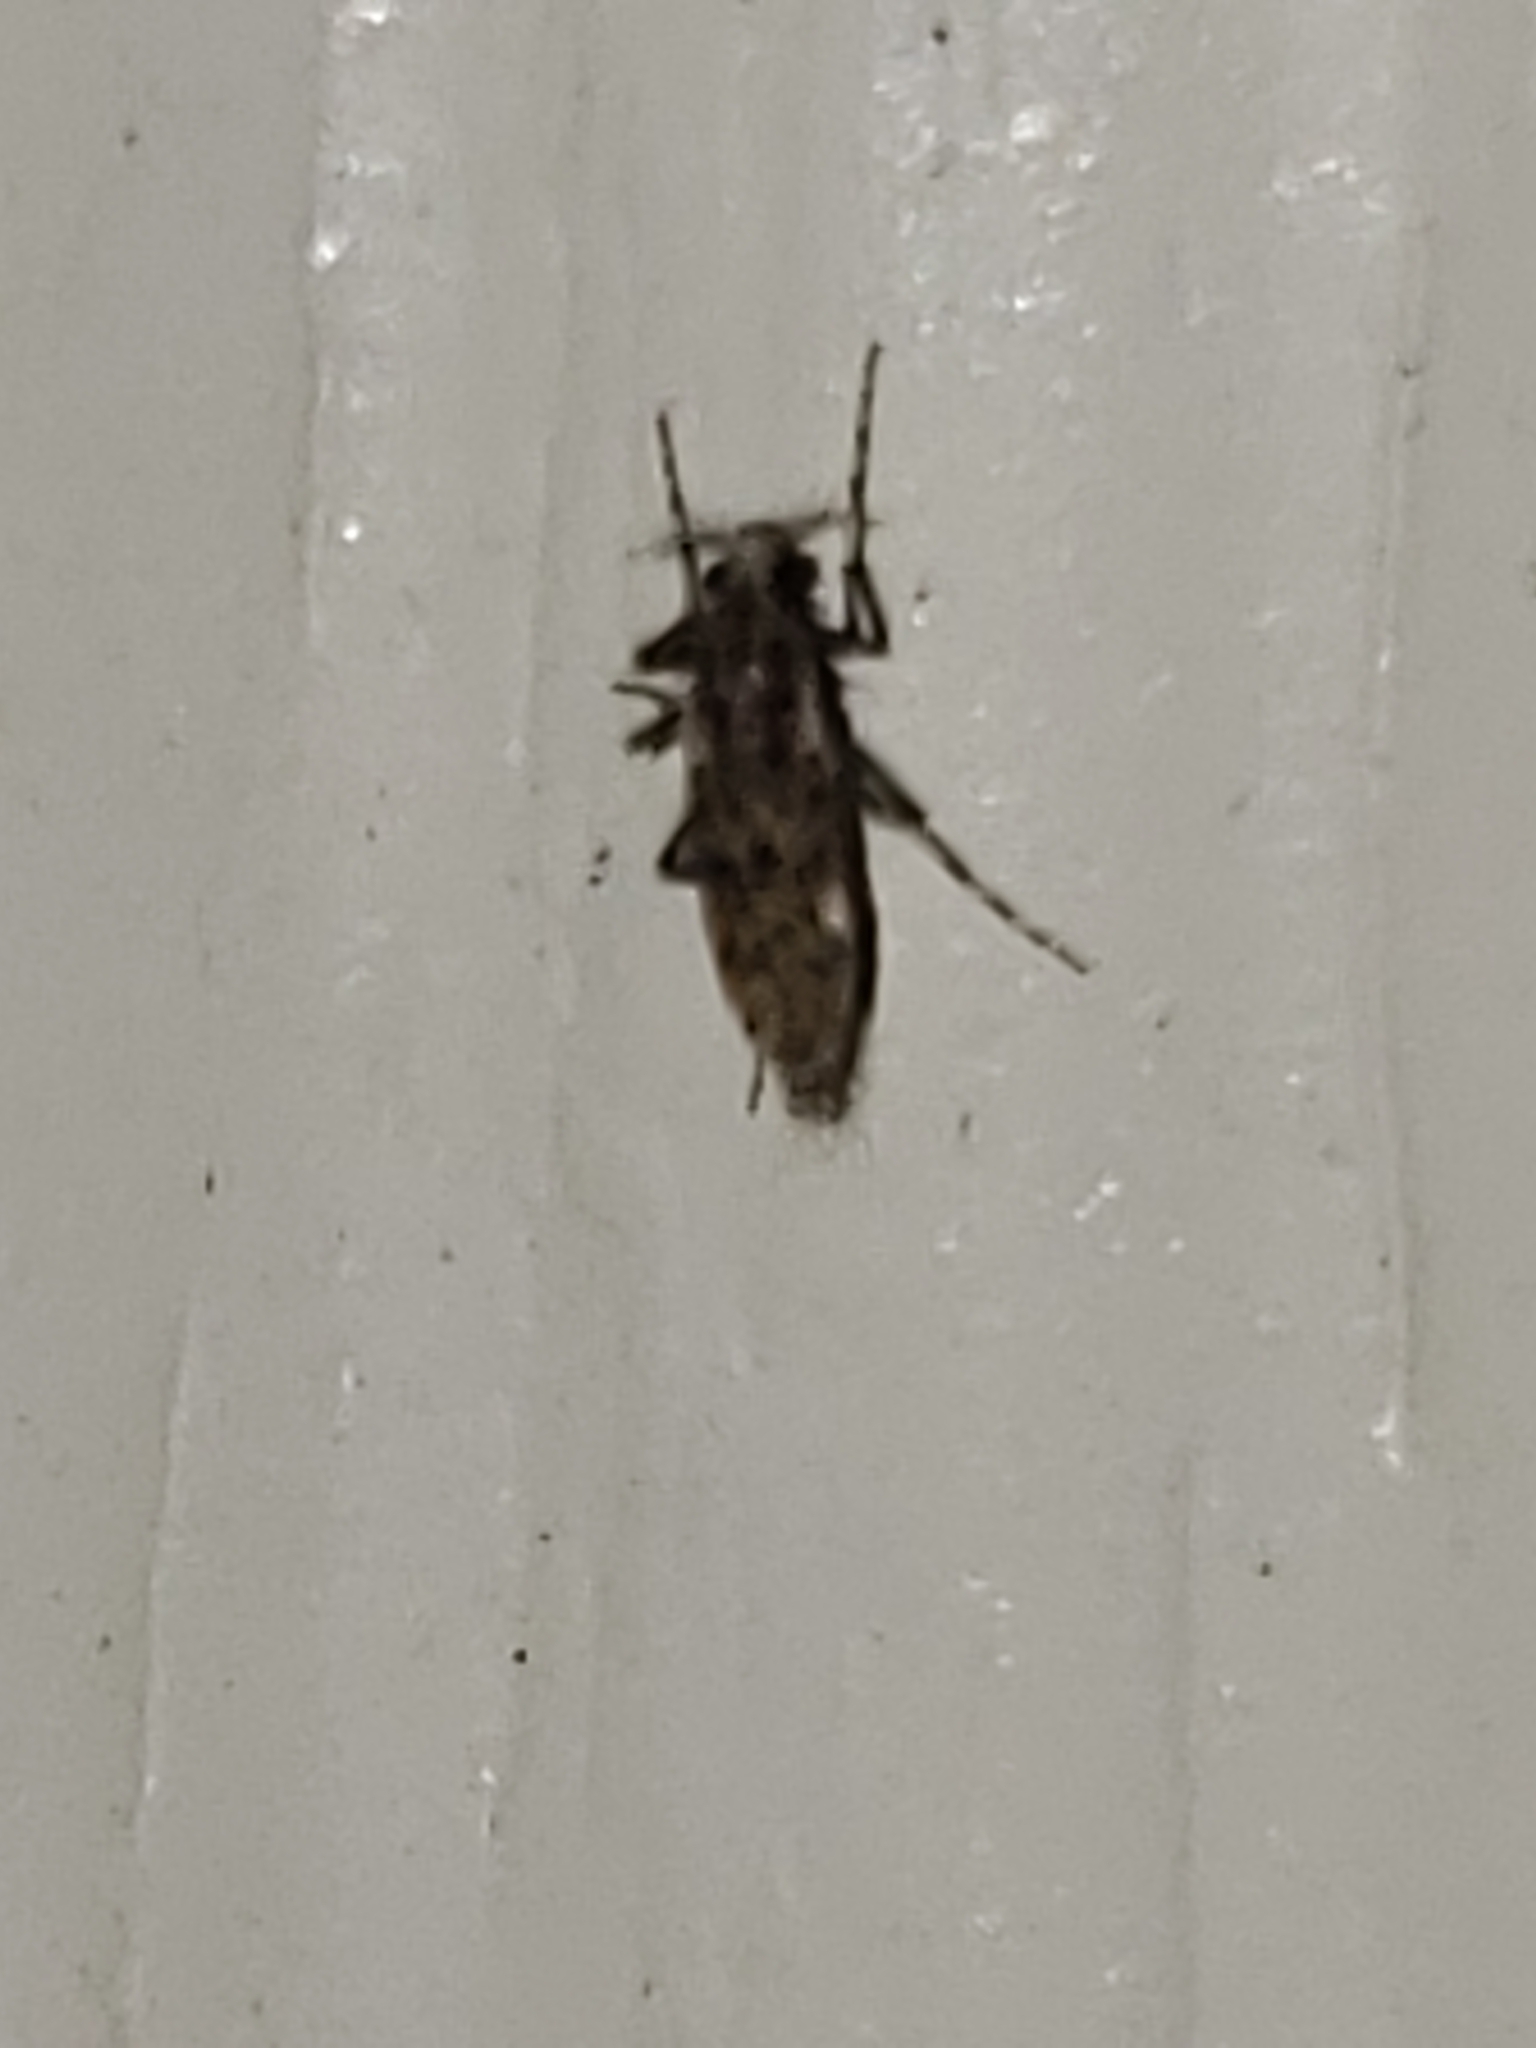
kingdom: Animalia
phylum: Arthropoda
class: Insecta
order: Diptera
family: Chaoboridae
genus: Chaoborus
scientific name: Chaoborus punctipennis
